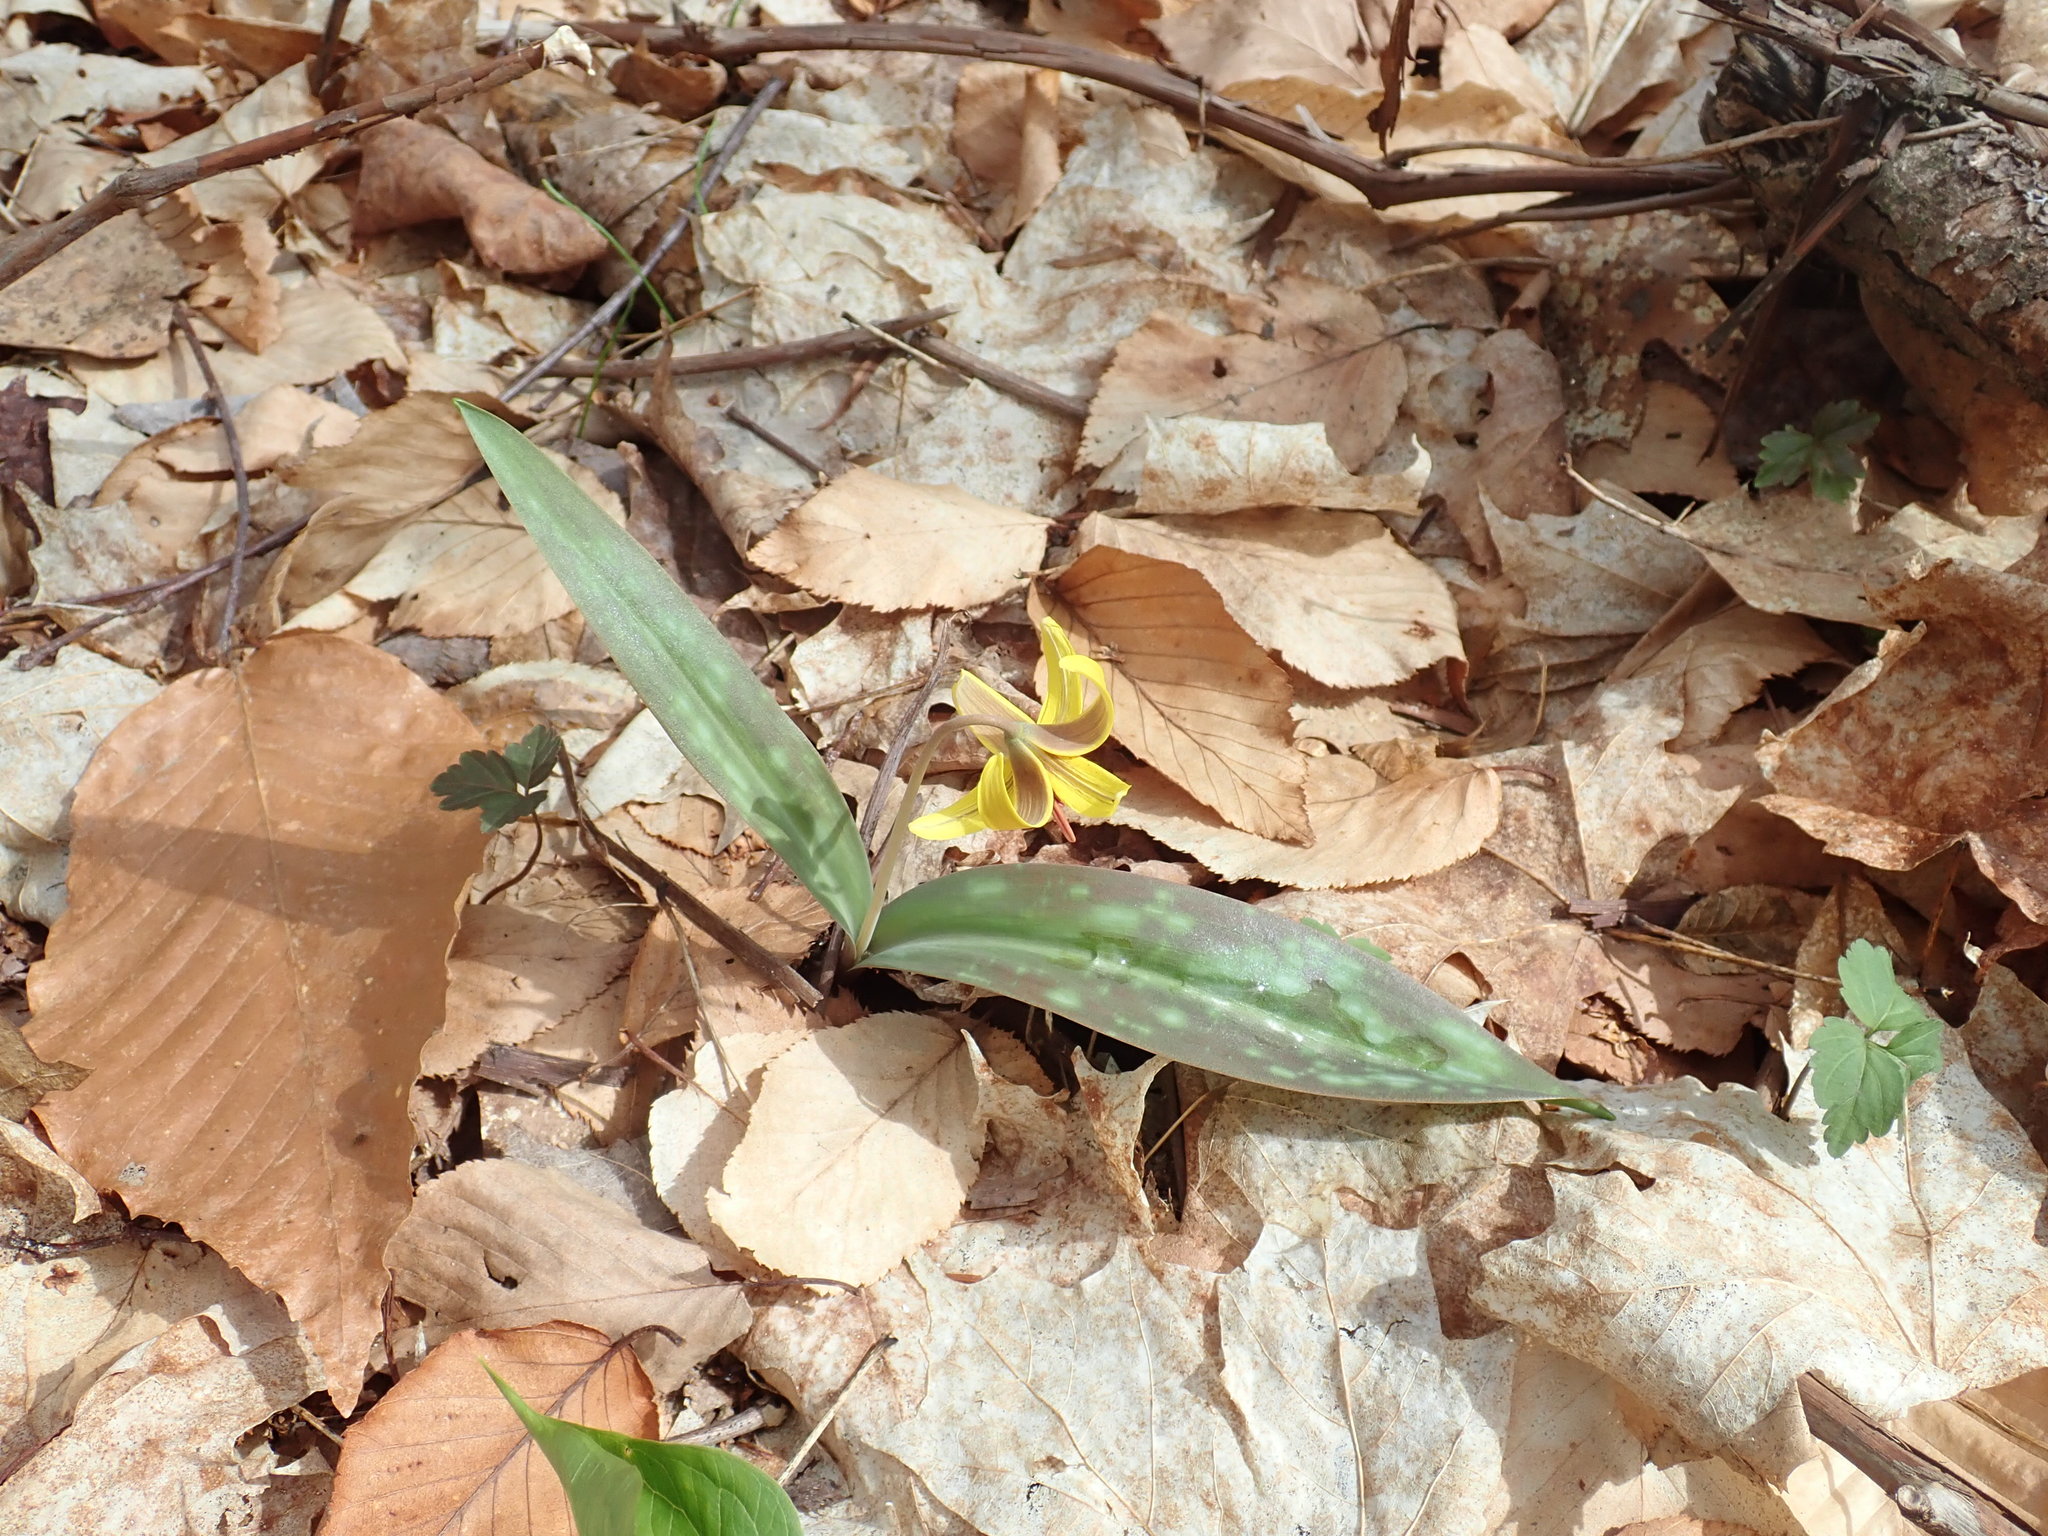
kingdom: Plantae
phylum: Tracheophyta
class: Liliopsida
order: Liliales
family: Liliaceae
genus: Erythronium
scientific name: Erythronium americanum
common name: Yellow adder's-tongue
